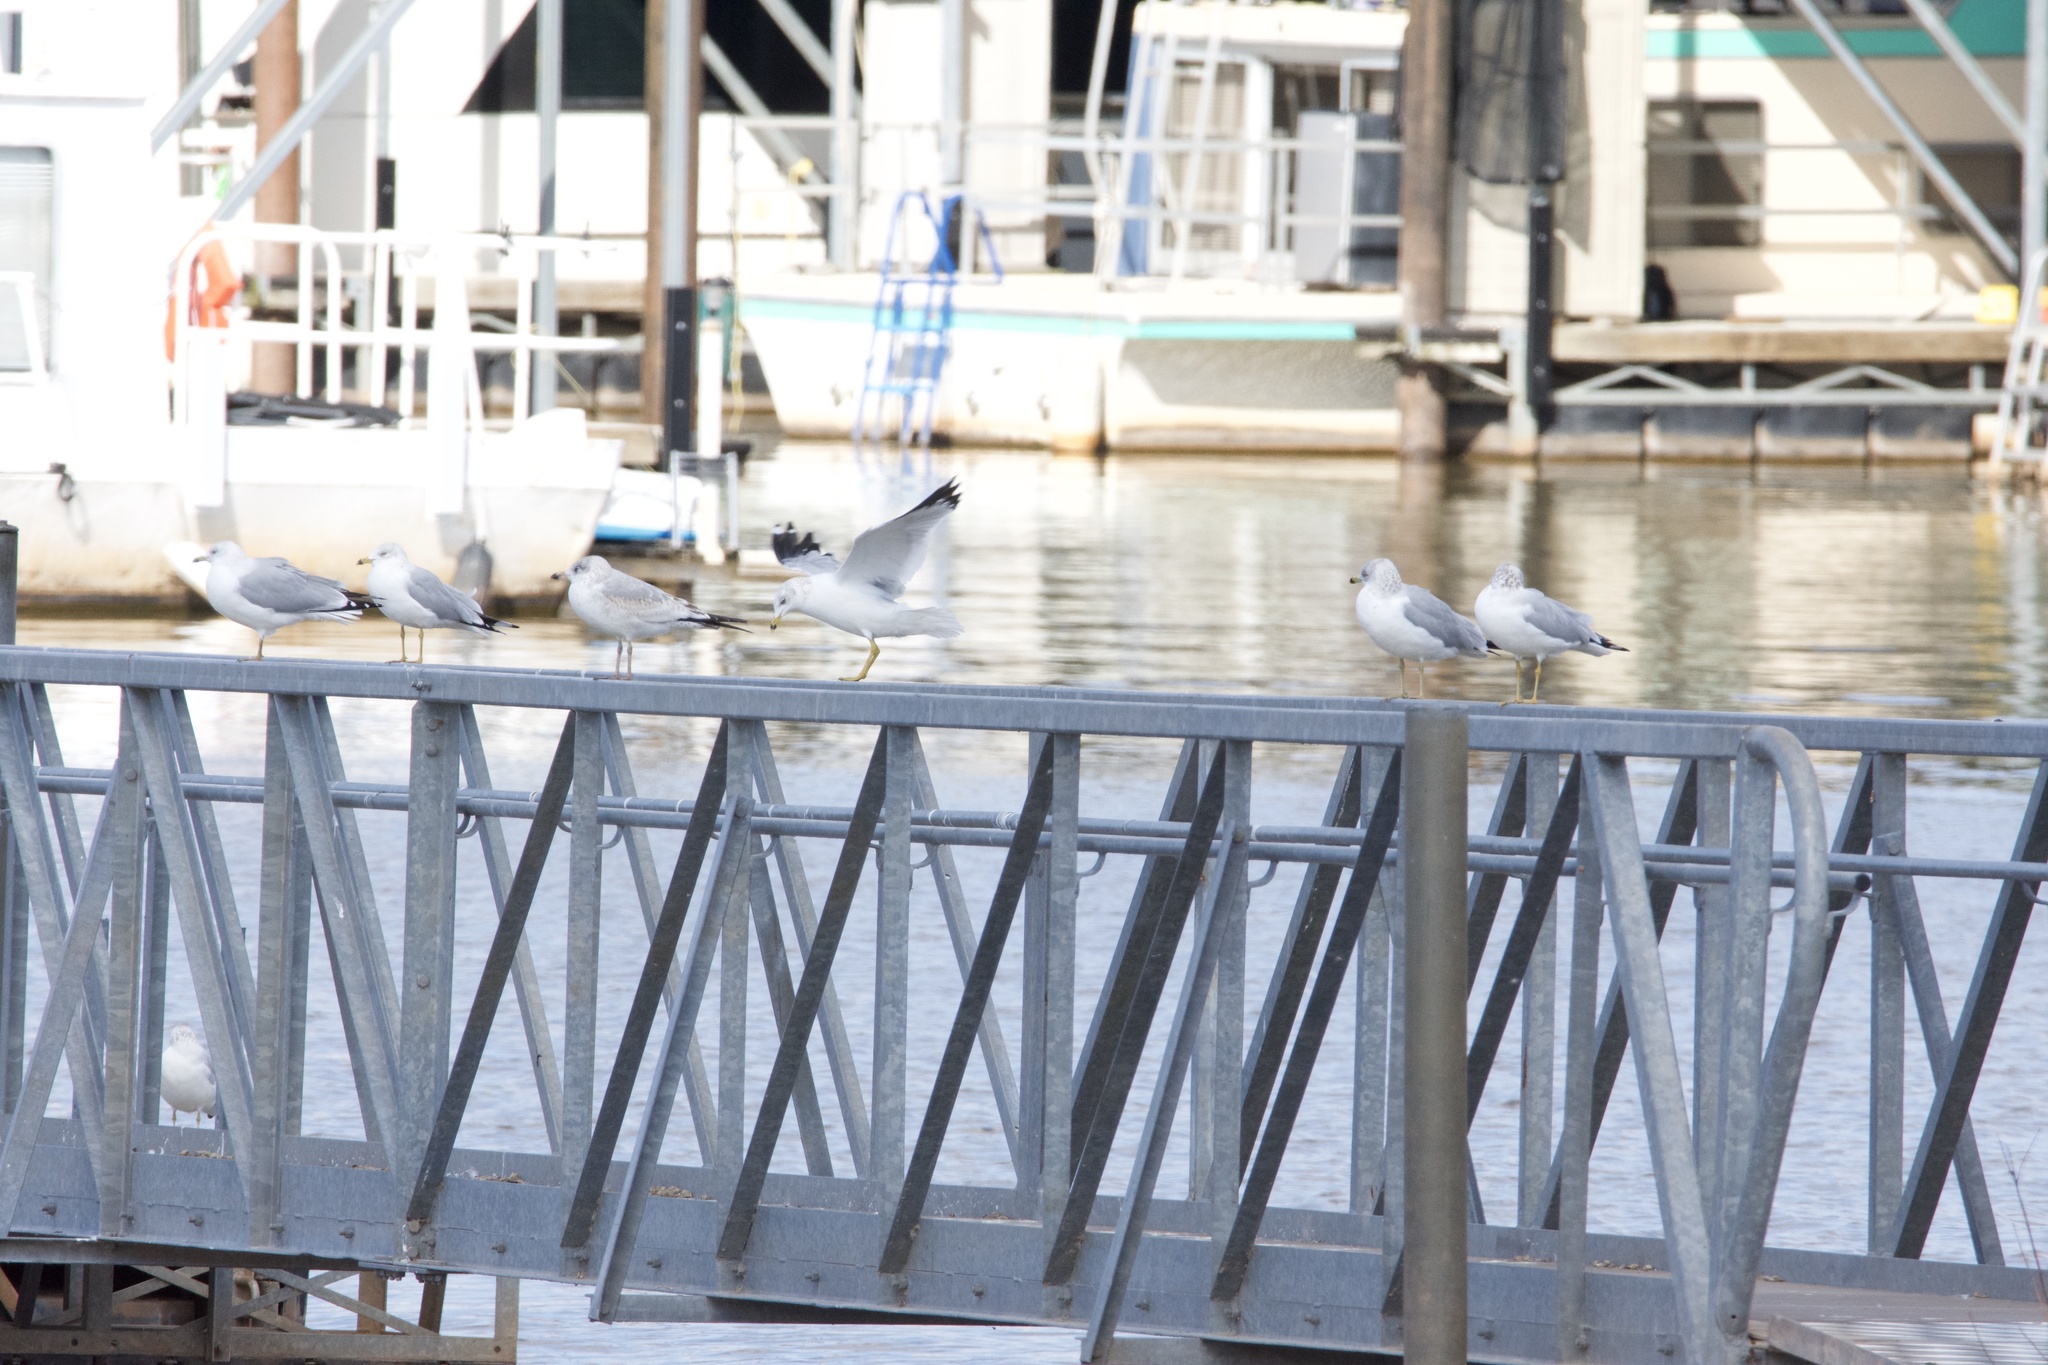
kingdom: Animalia
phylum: Chordata
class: Aves
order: Charadriiformes
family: Laridae
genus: Larus
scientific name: Larus delawarensis
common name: Ring-billed gull
